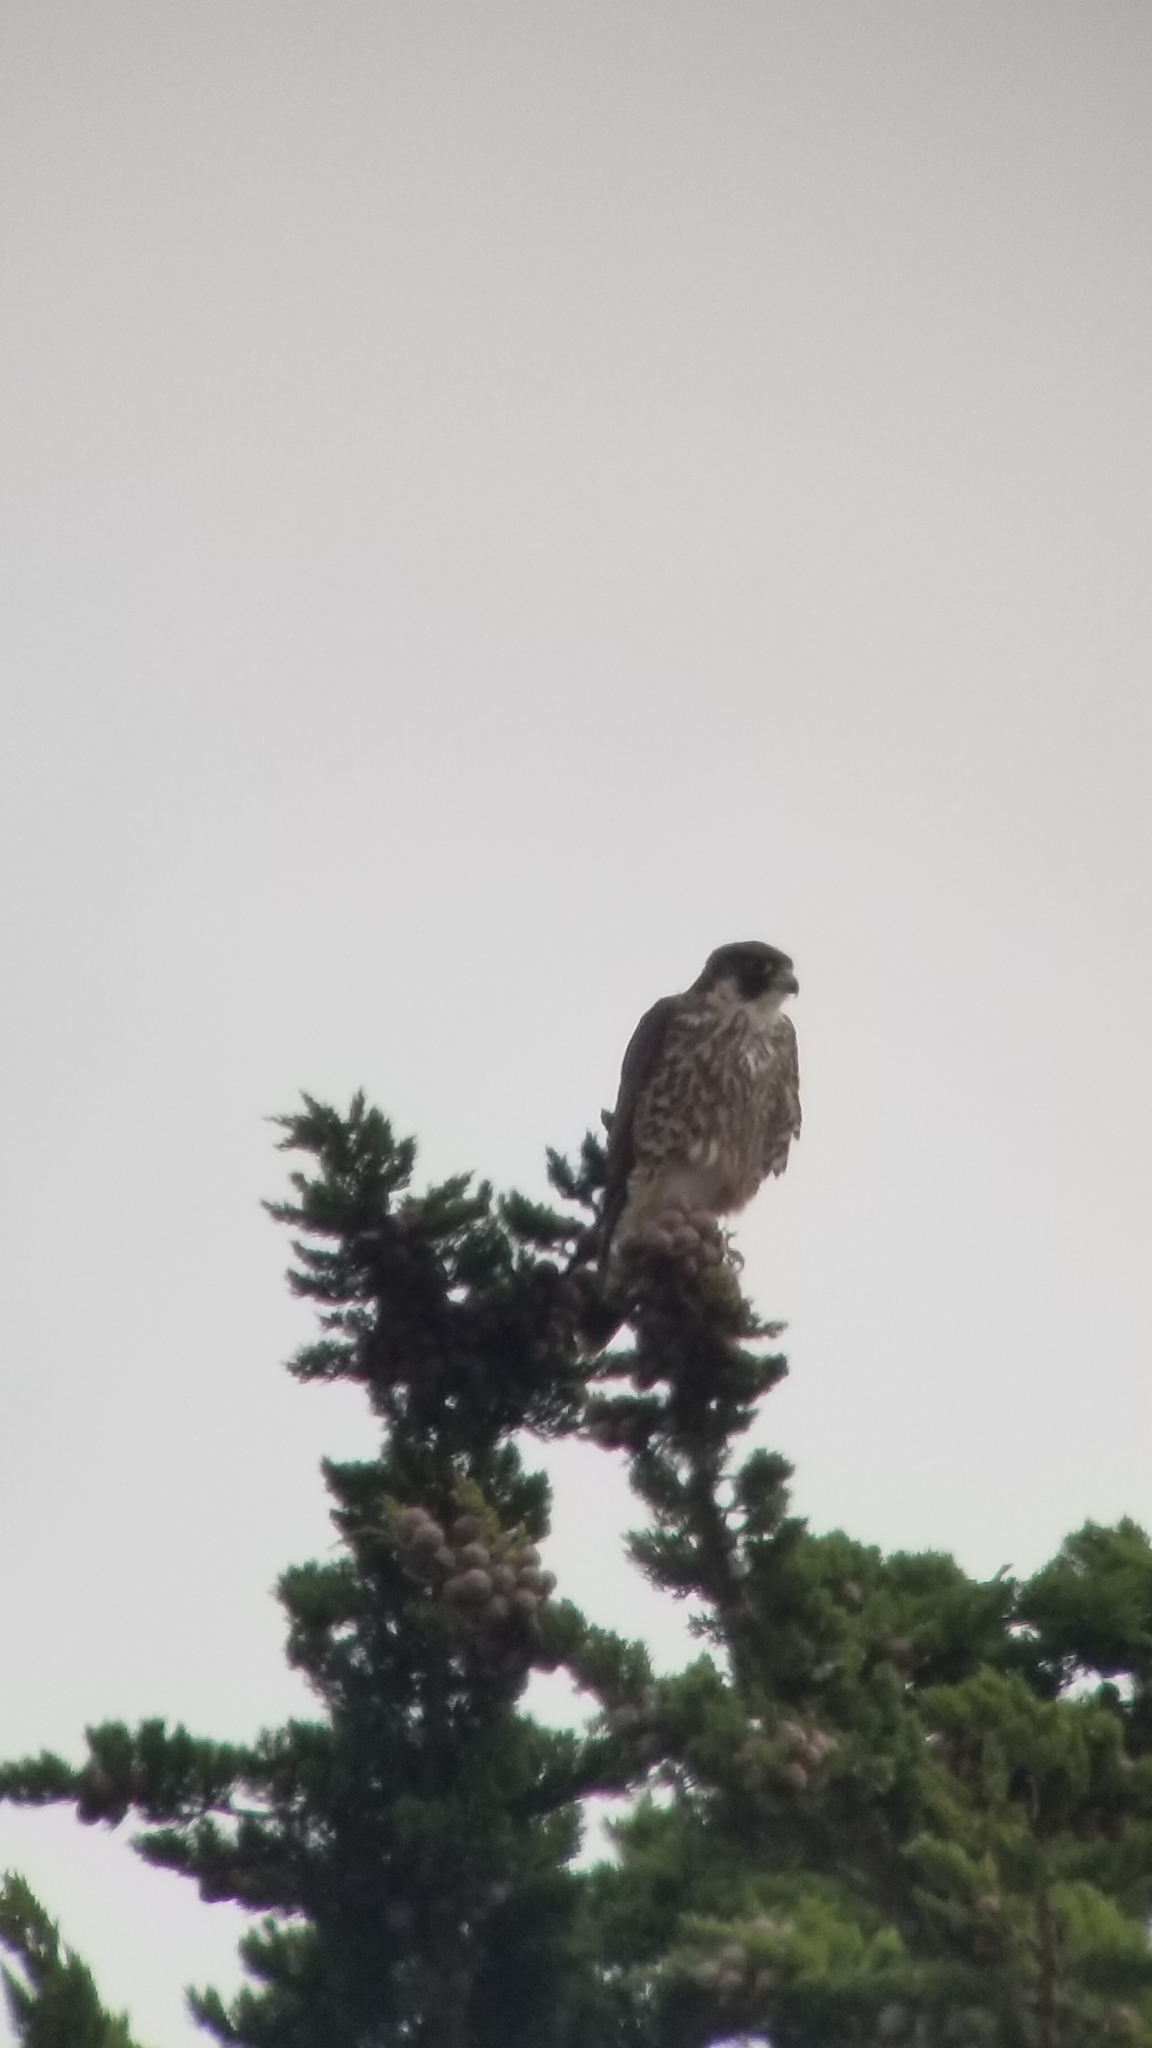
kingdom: Animalia
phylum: Chordata
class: Aves
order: Falconiformes
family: Falconidae
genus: Falco
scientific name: Falco peregrinus
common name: Peregrine falcon
